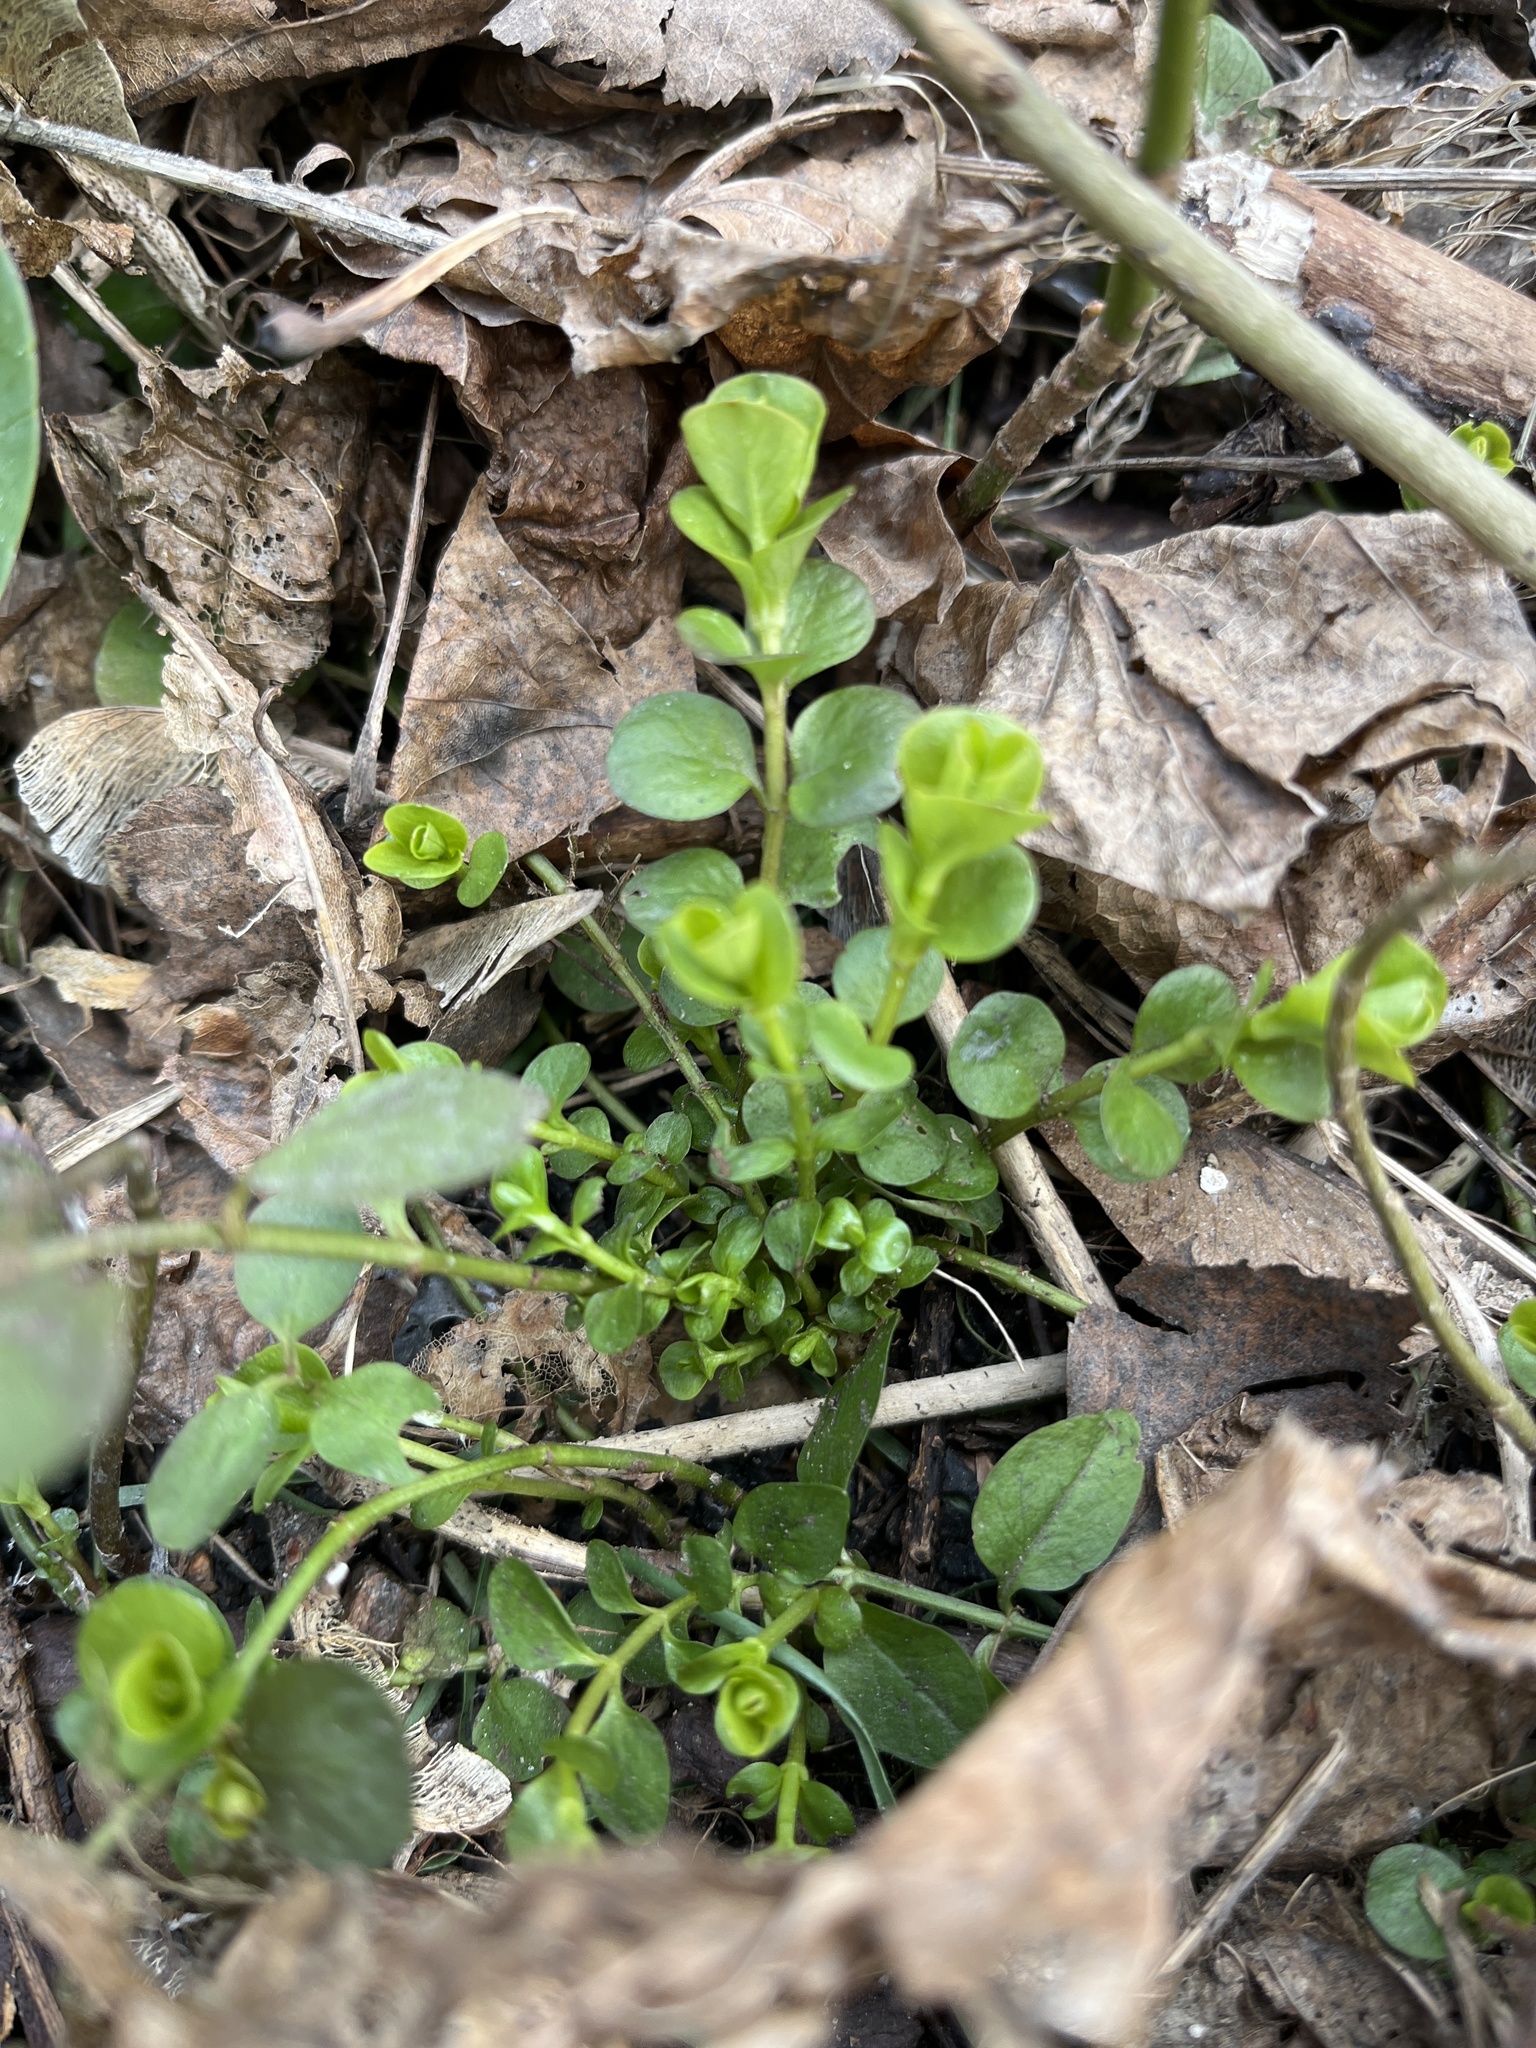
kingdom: Plantae
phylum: Tracheophyta
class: Magnoliopsida
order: Ericales
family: Primulaceae
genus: Lysimachia
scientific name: Lysimachia nummularia
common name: Moneywort
